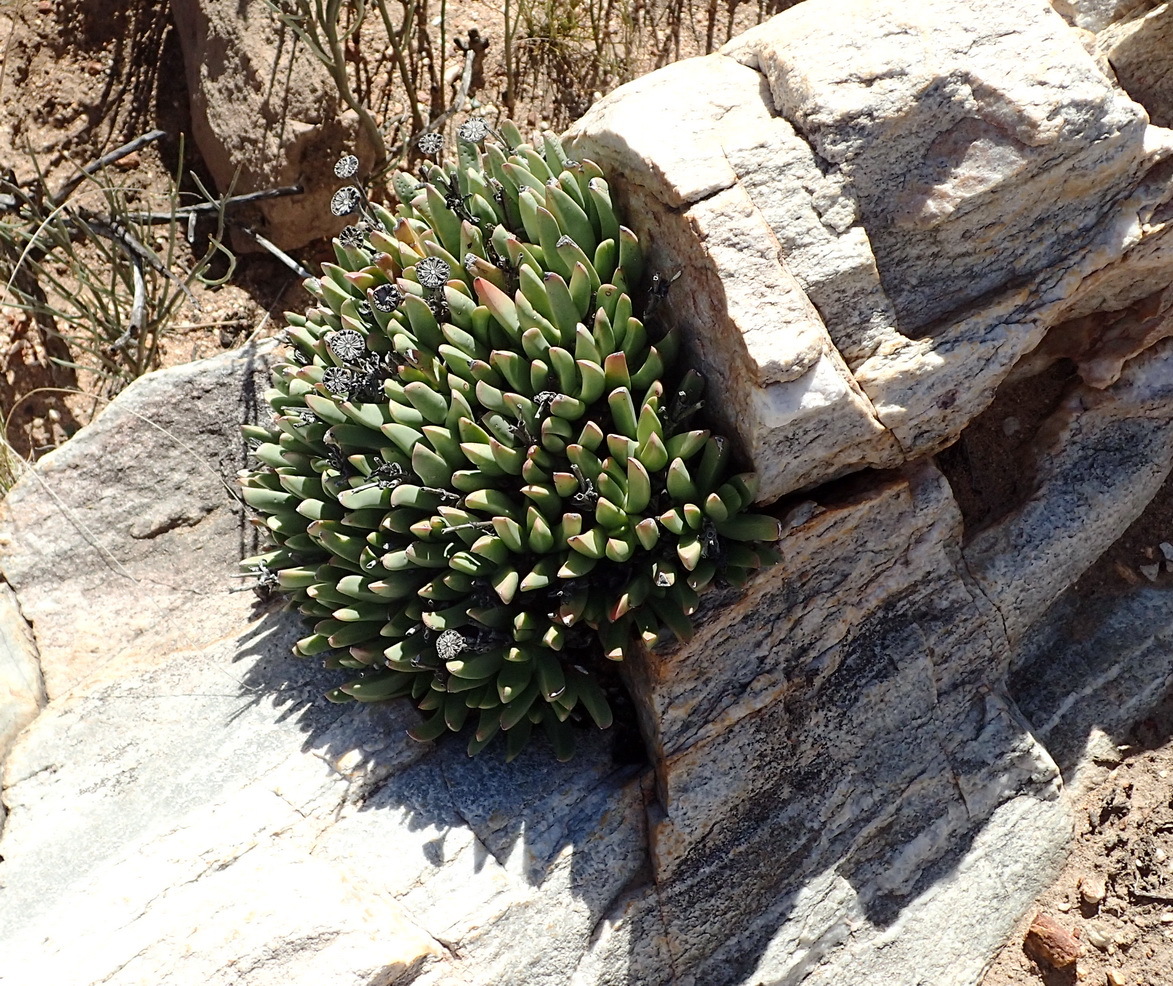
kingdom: Plantae
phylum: Tracheophyta
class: Magnoliopsida
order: Caryophyllales
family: Aizoaceae
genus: Machairophyllum
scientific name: Machairophyllum albidum
